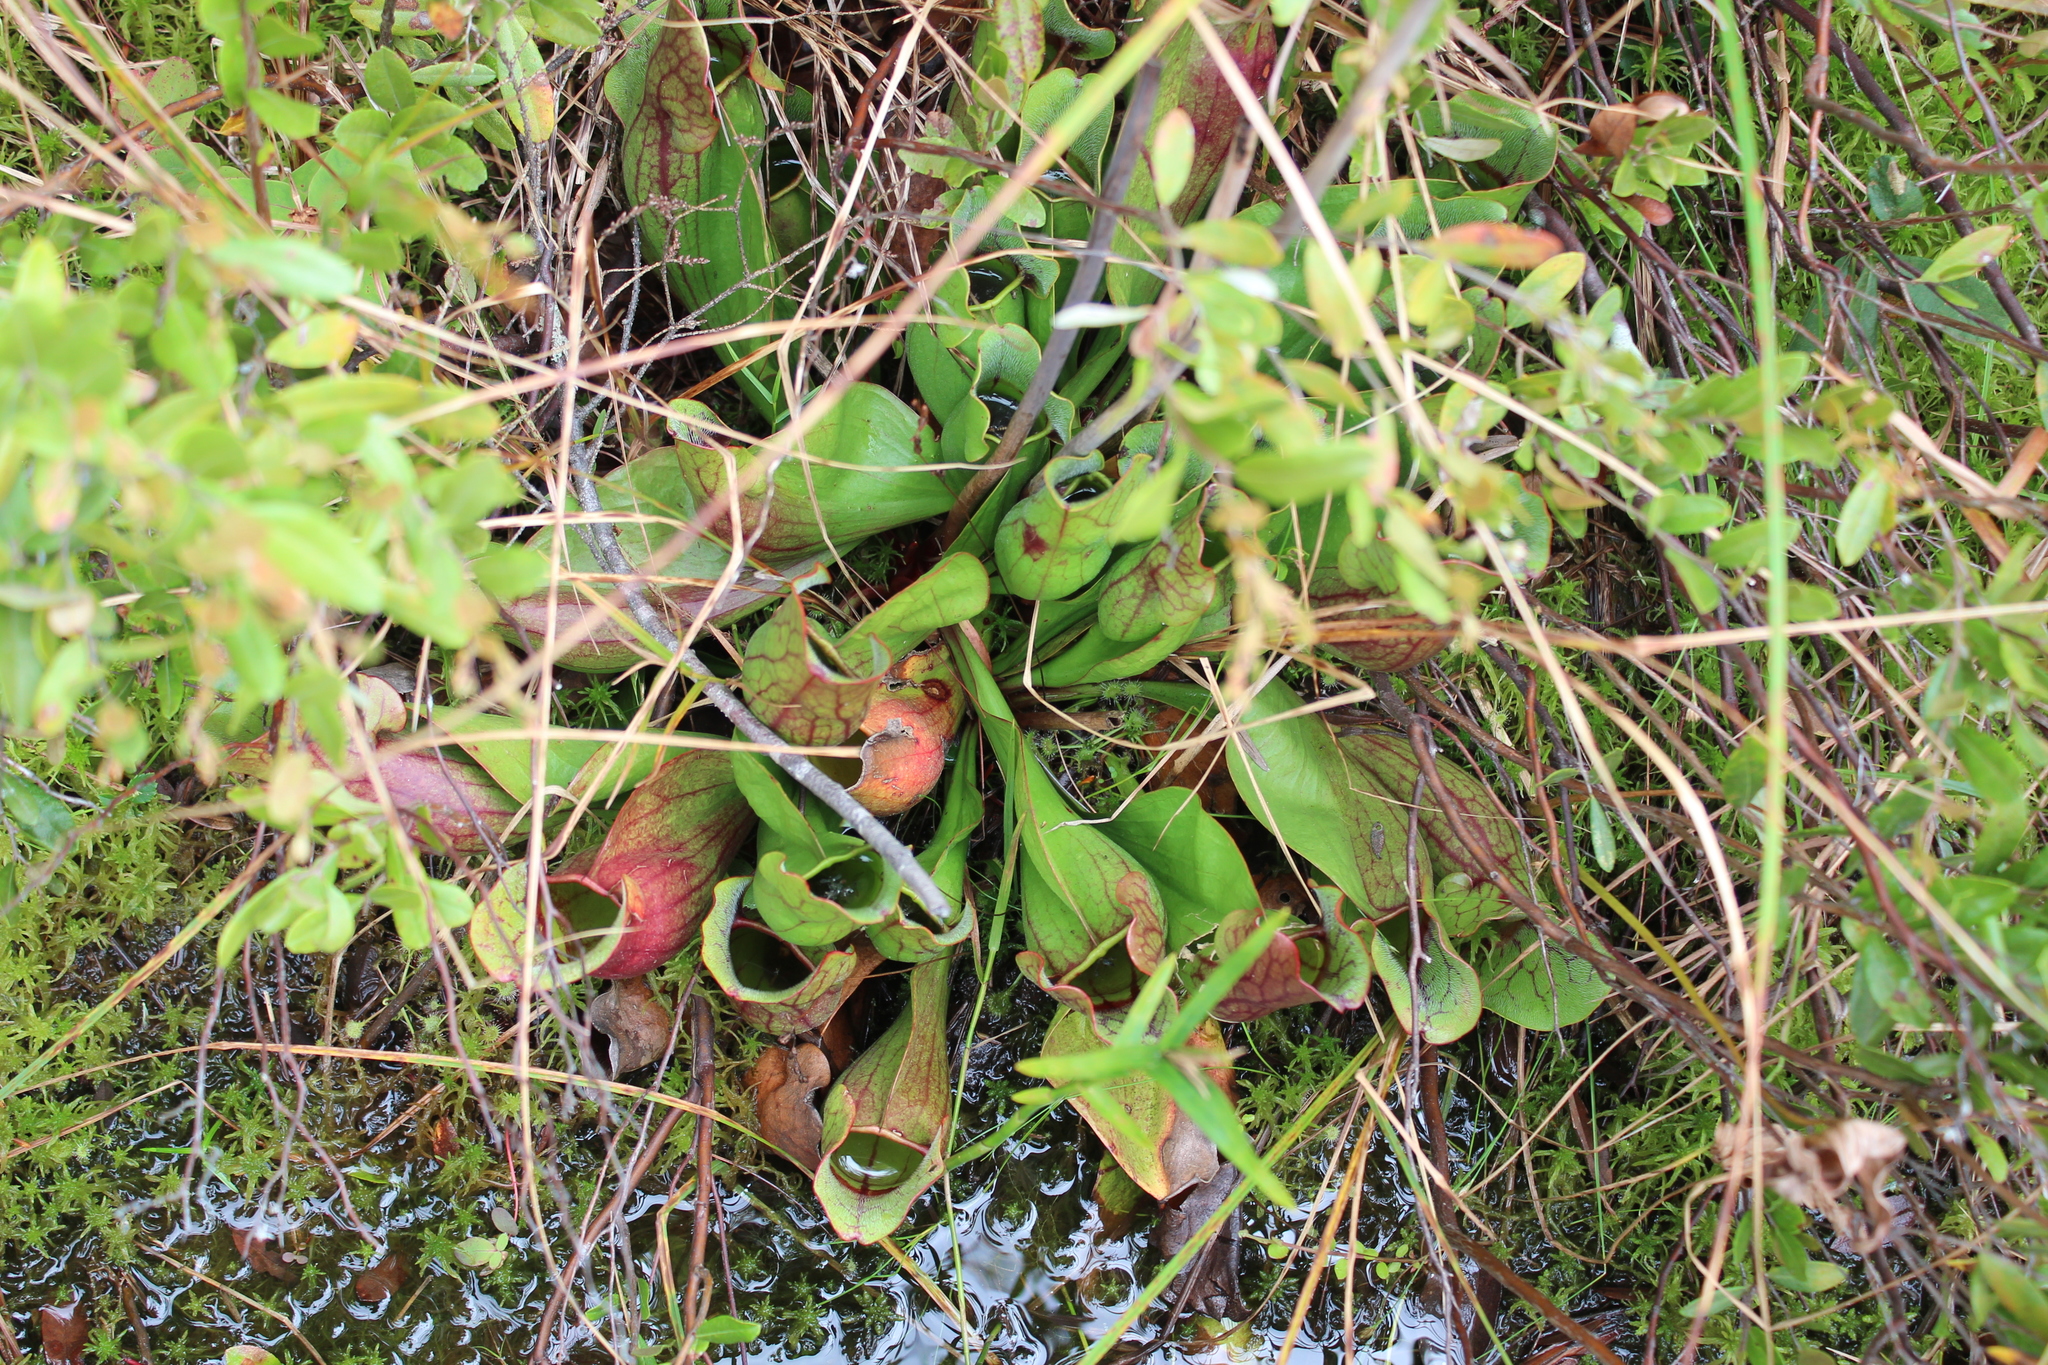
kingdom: Plantae
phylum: Tracheophyta
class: Magnoliopsida
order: Ericales
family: Sarraceniaceae
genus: Sarracenia
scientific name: Sarracenia purpurea
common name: Pitcherplant
